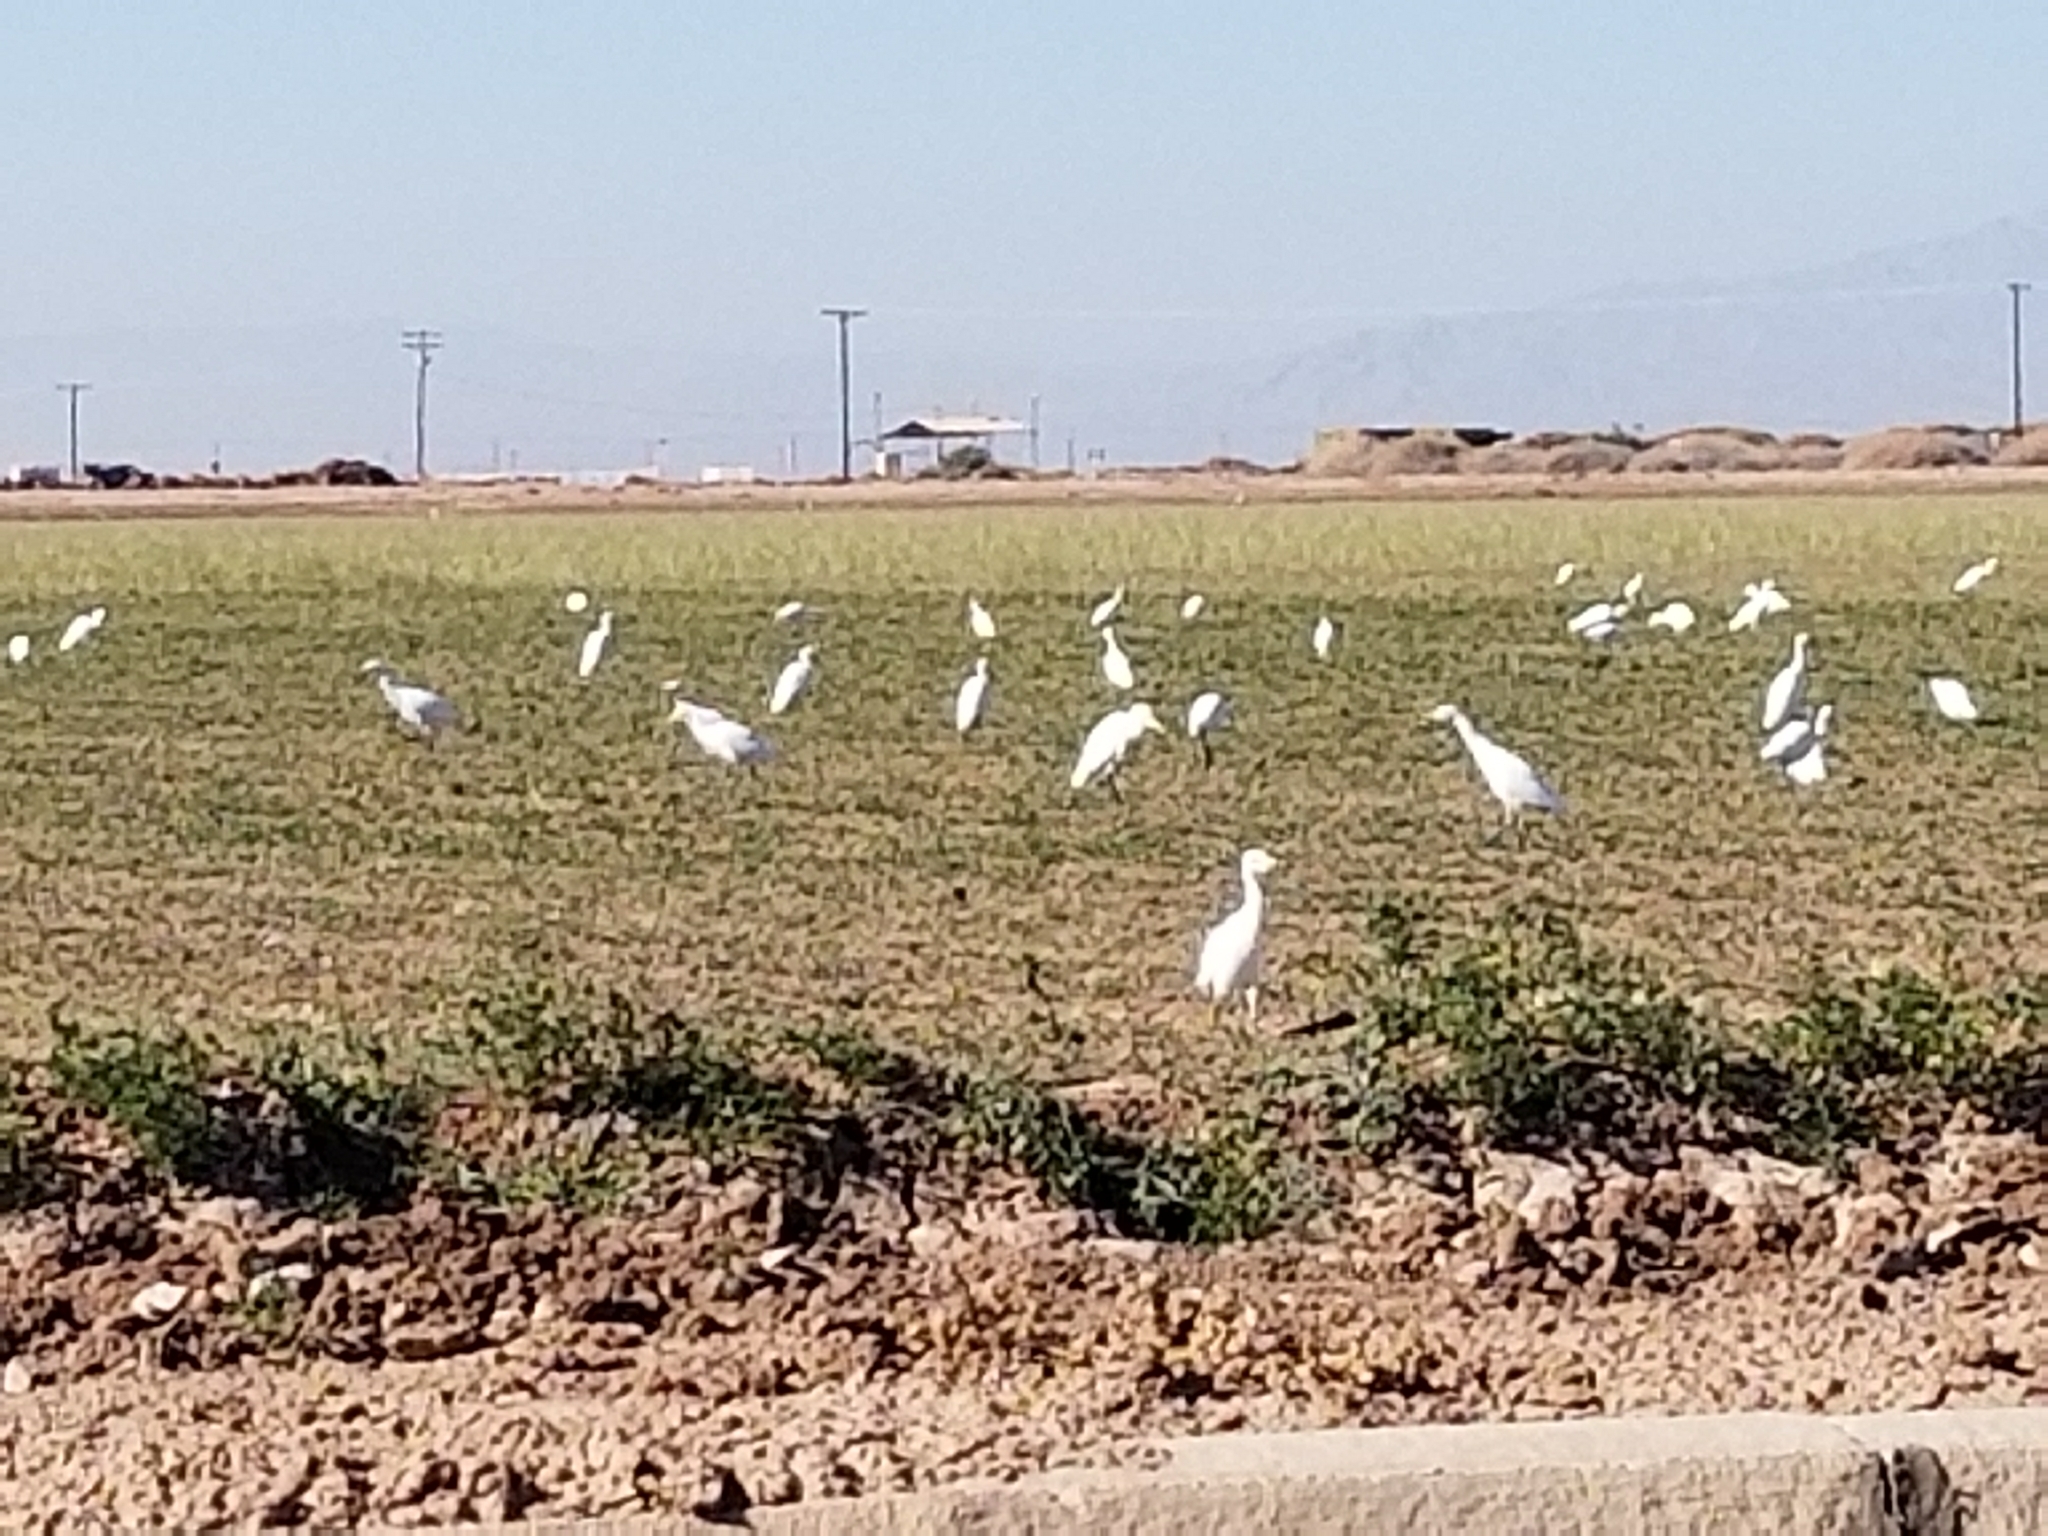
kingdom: Animalia
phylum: Chordata
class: Aves
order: Pelecaniformes
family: Ardeidae
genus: Bubulcus
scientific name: Bubulcus ibis
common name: Cattle egret
